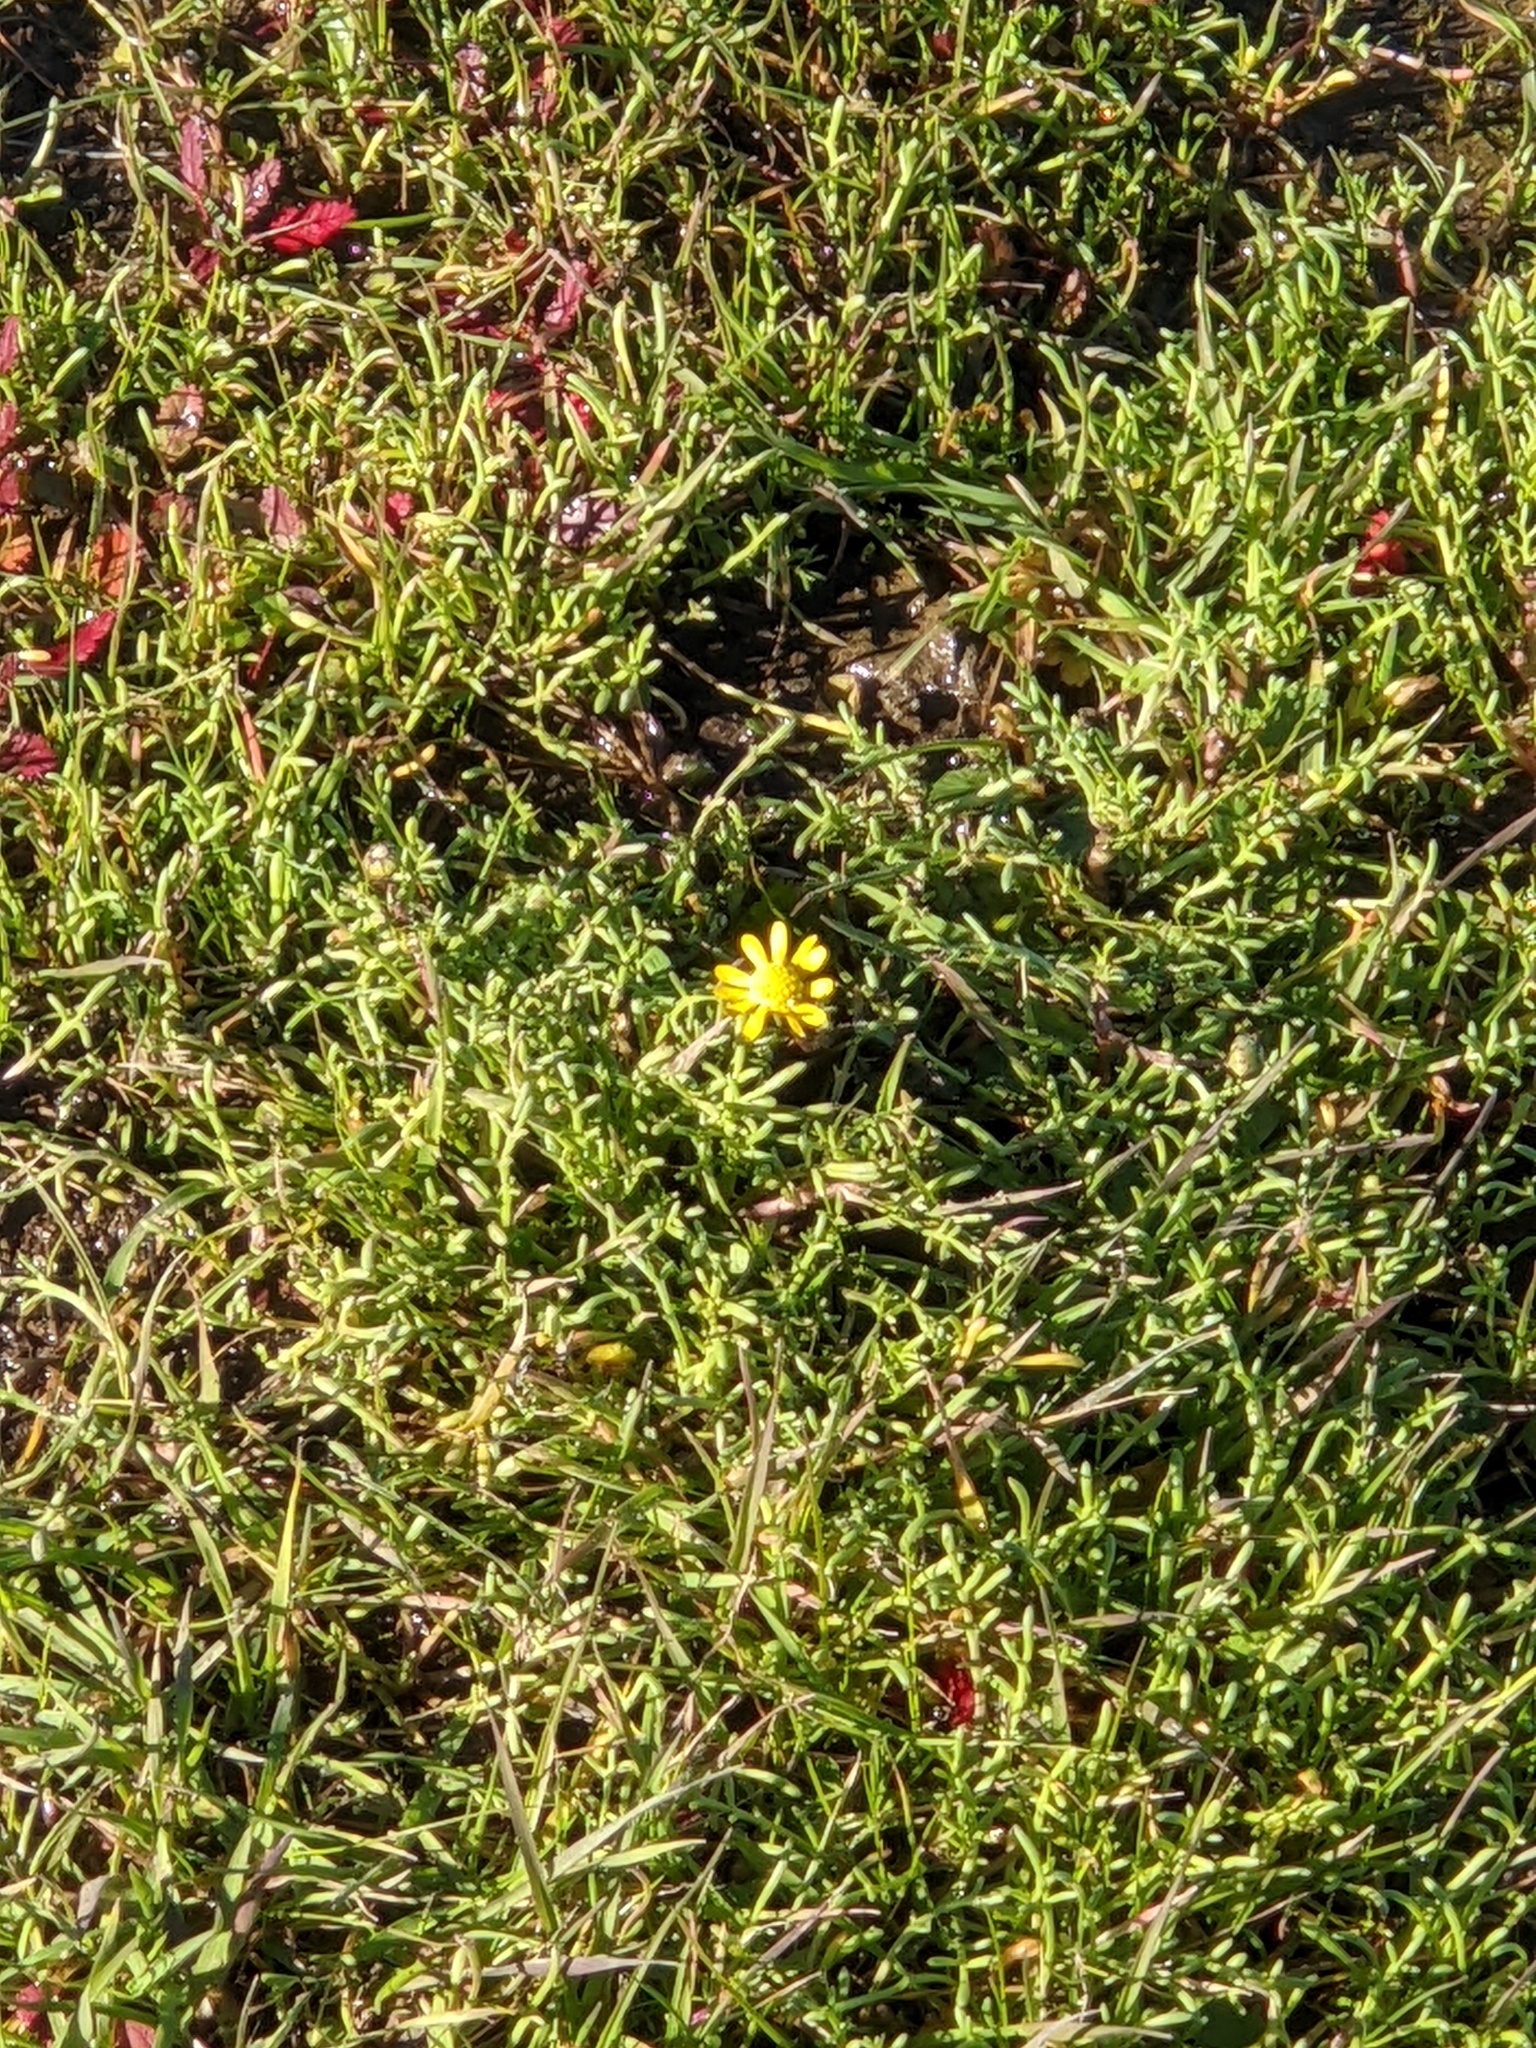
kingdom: Plantae
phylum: Tracheophyta
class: Magnoliopsida
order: Asterales
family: Asteraceae
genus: Blennosperma
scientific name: Blennosperma nanum
